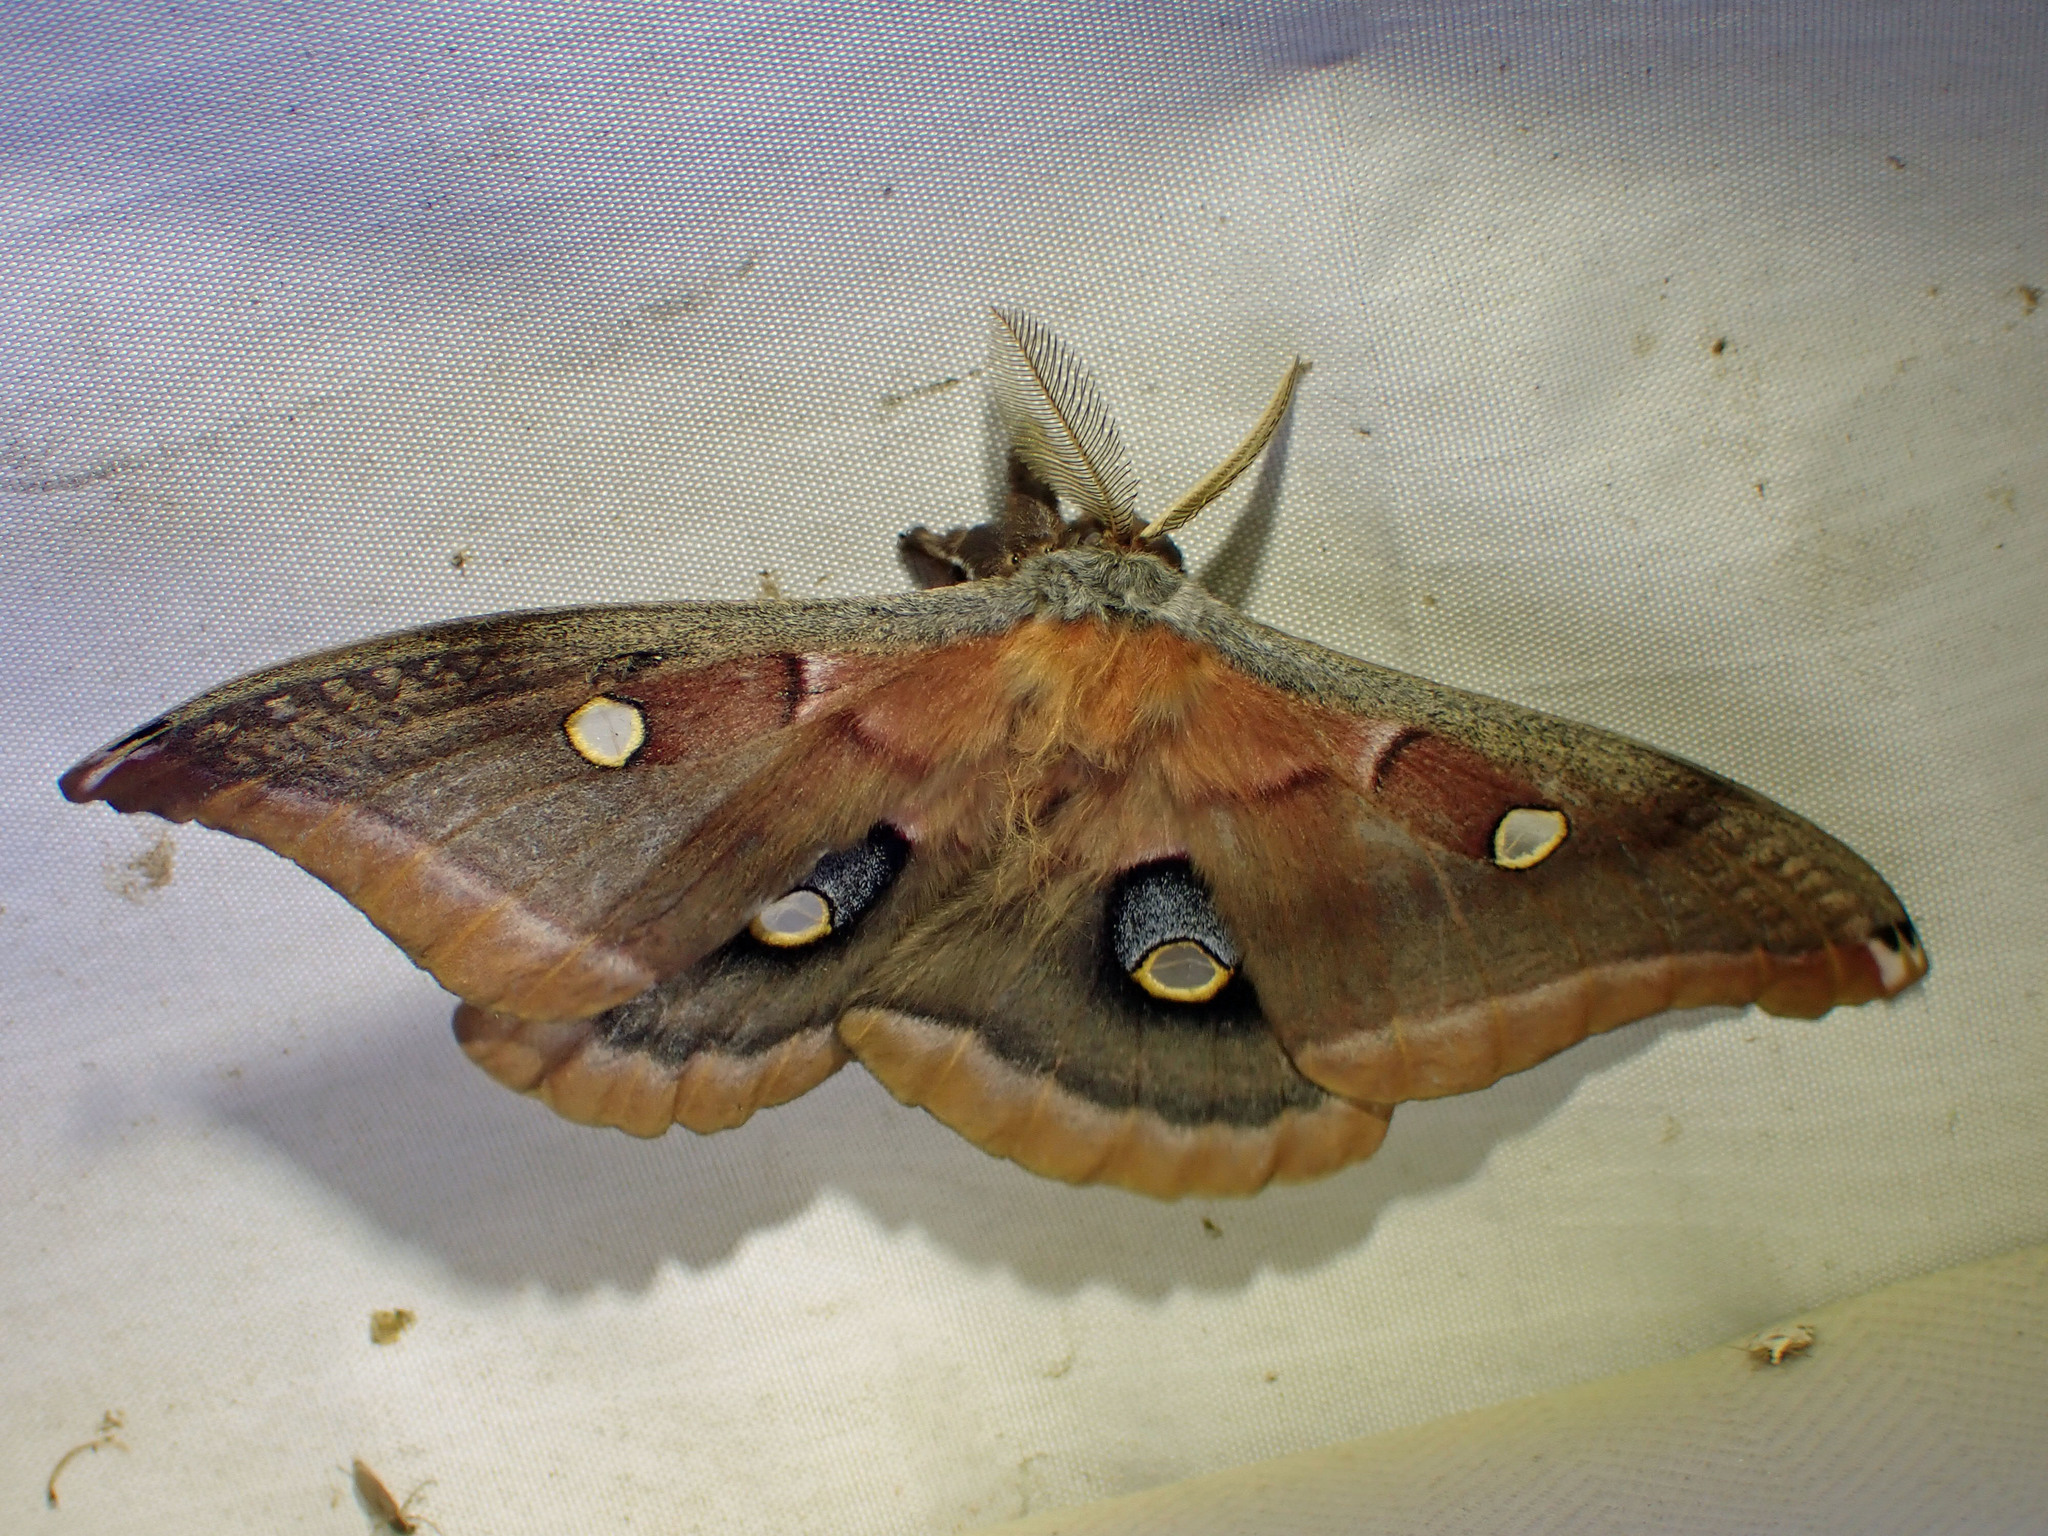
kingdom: Animalia
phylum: Arthropoda
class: Insecta
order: Lepidoptera
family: Saturniidae
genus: Antheraea
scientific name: Antheraea polyphemus
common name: Polyphemus moth
